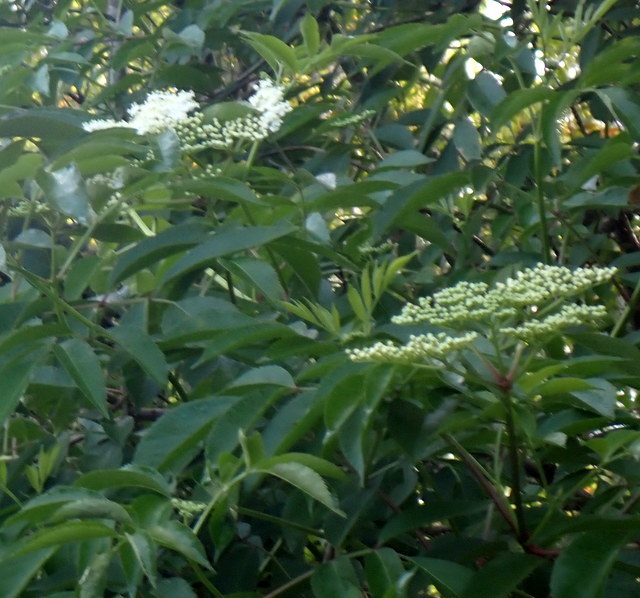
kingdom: Plantae
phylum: Tracheophyta
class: Magnoliopsida
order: Dipsacales
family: Viburnaceae
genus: Sambucus
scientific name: Sambucus canadensis
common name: American elder
